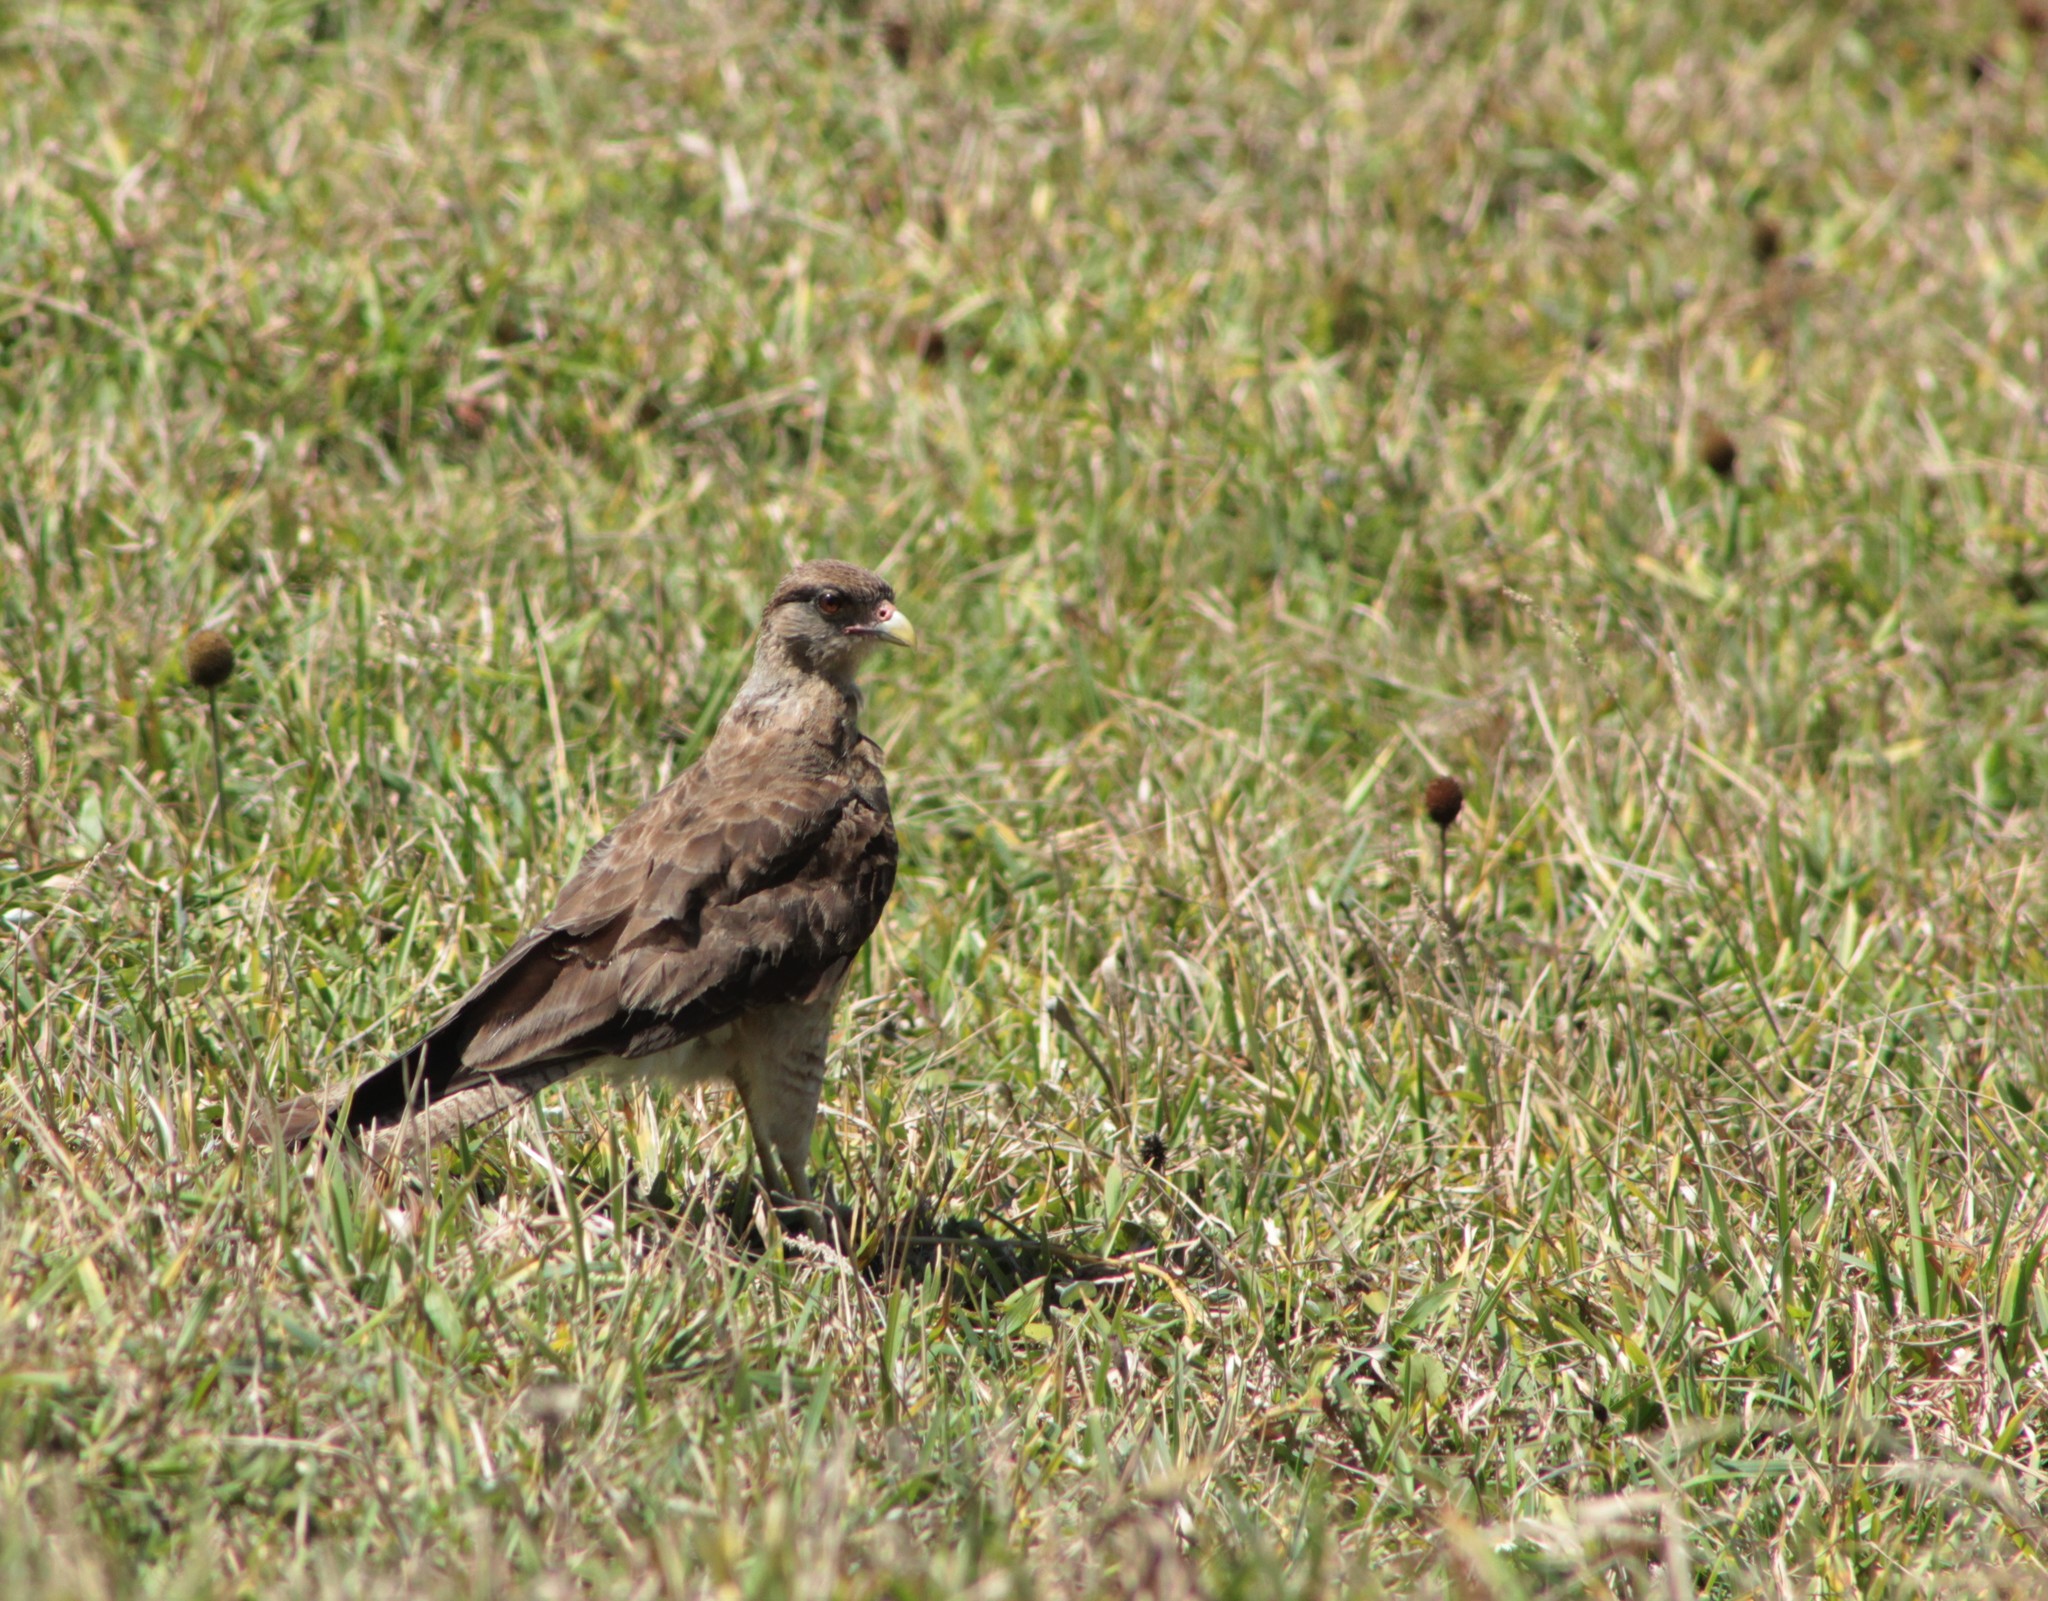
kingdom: Animalia
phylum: Chordata
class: Aves
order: Falconiformes
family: Falconidae
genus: Daptrius
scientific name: Daptrius
